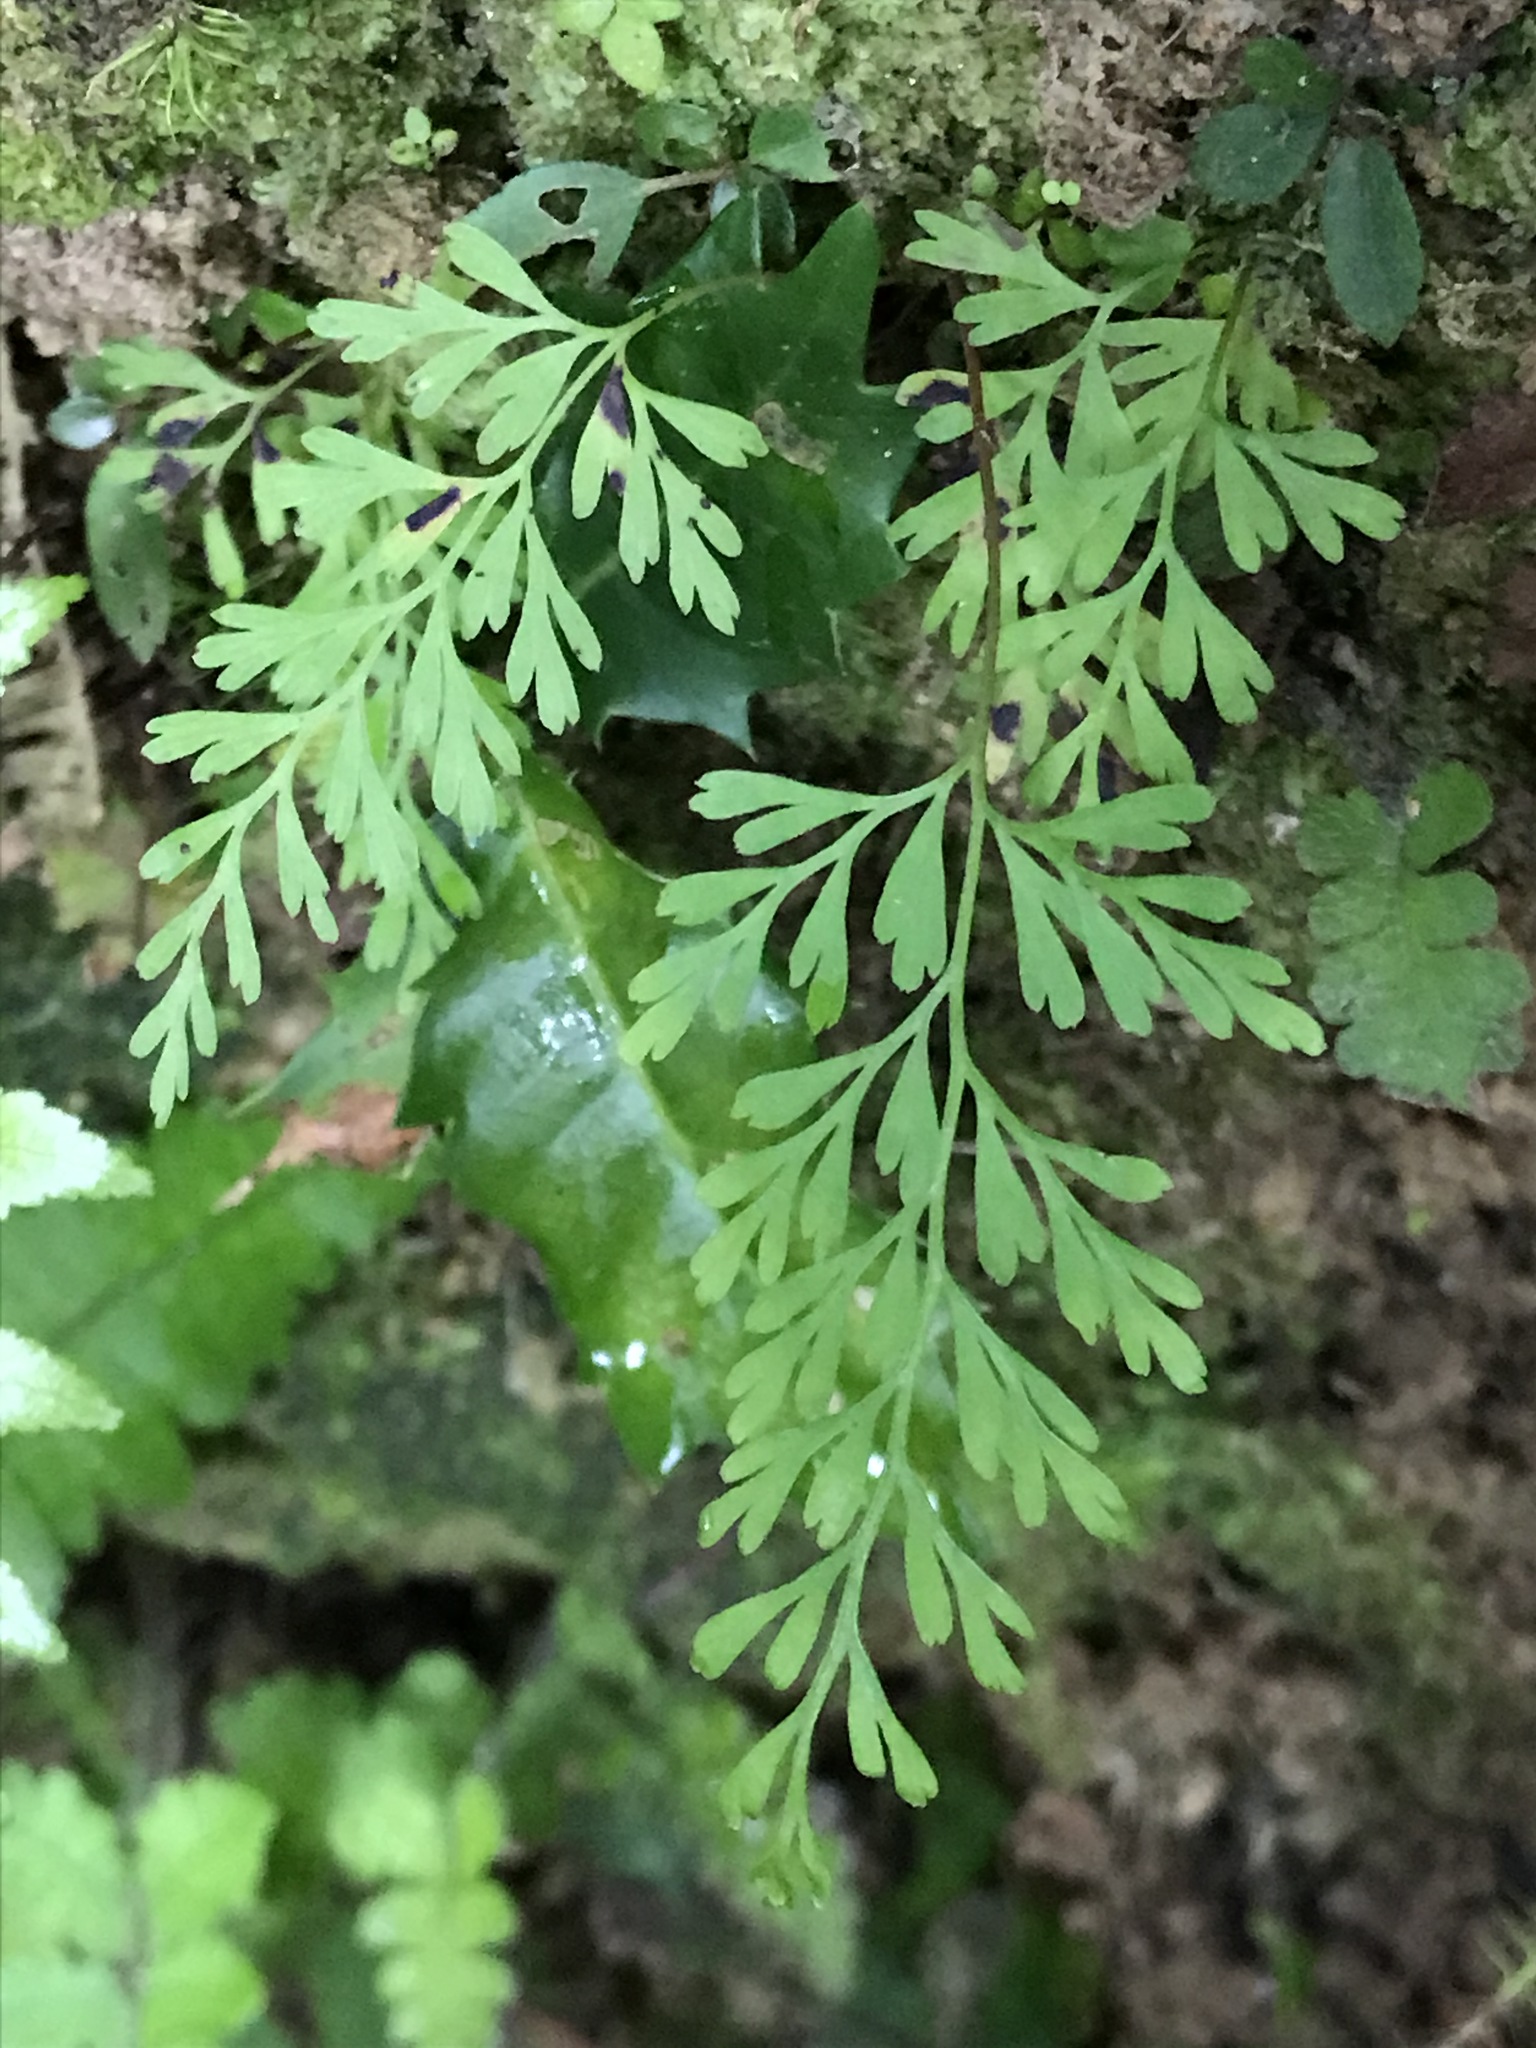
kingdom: Plantae
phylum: Tracheophyta
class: Polypodiopsida
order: Polypodiales
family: Lindsaeaceae
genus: Odontosoria
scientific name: Odontosoria chinensis
